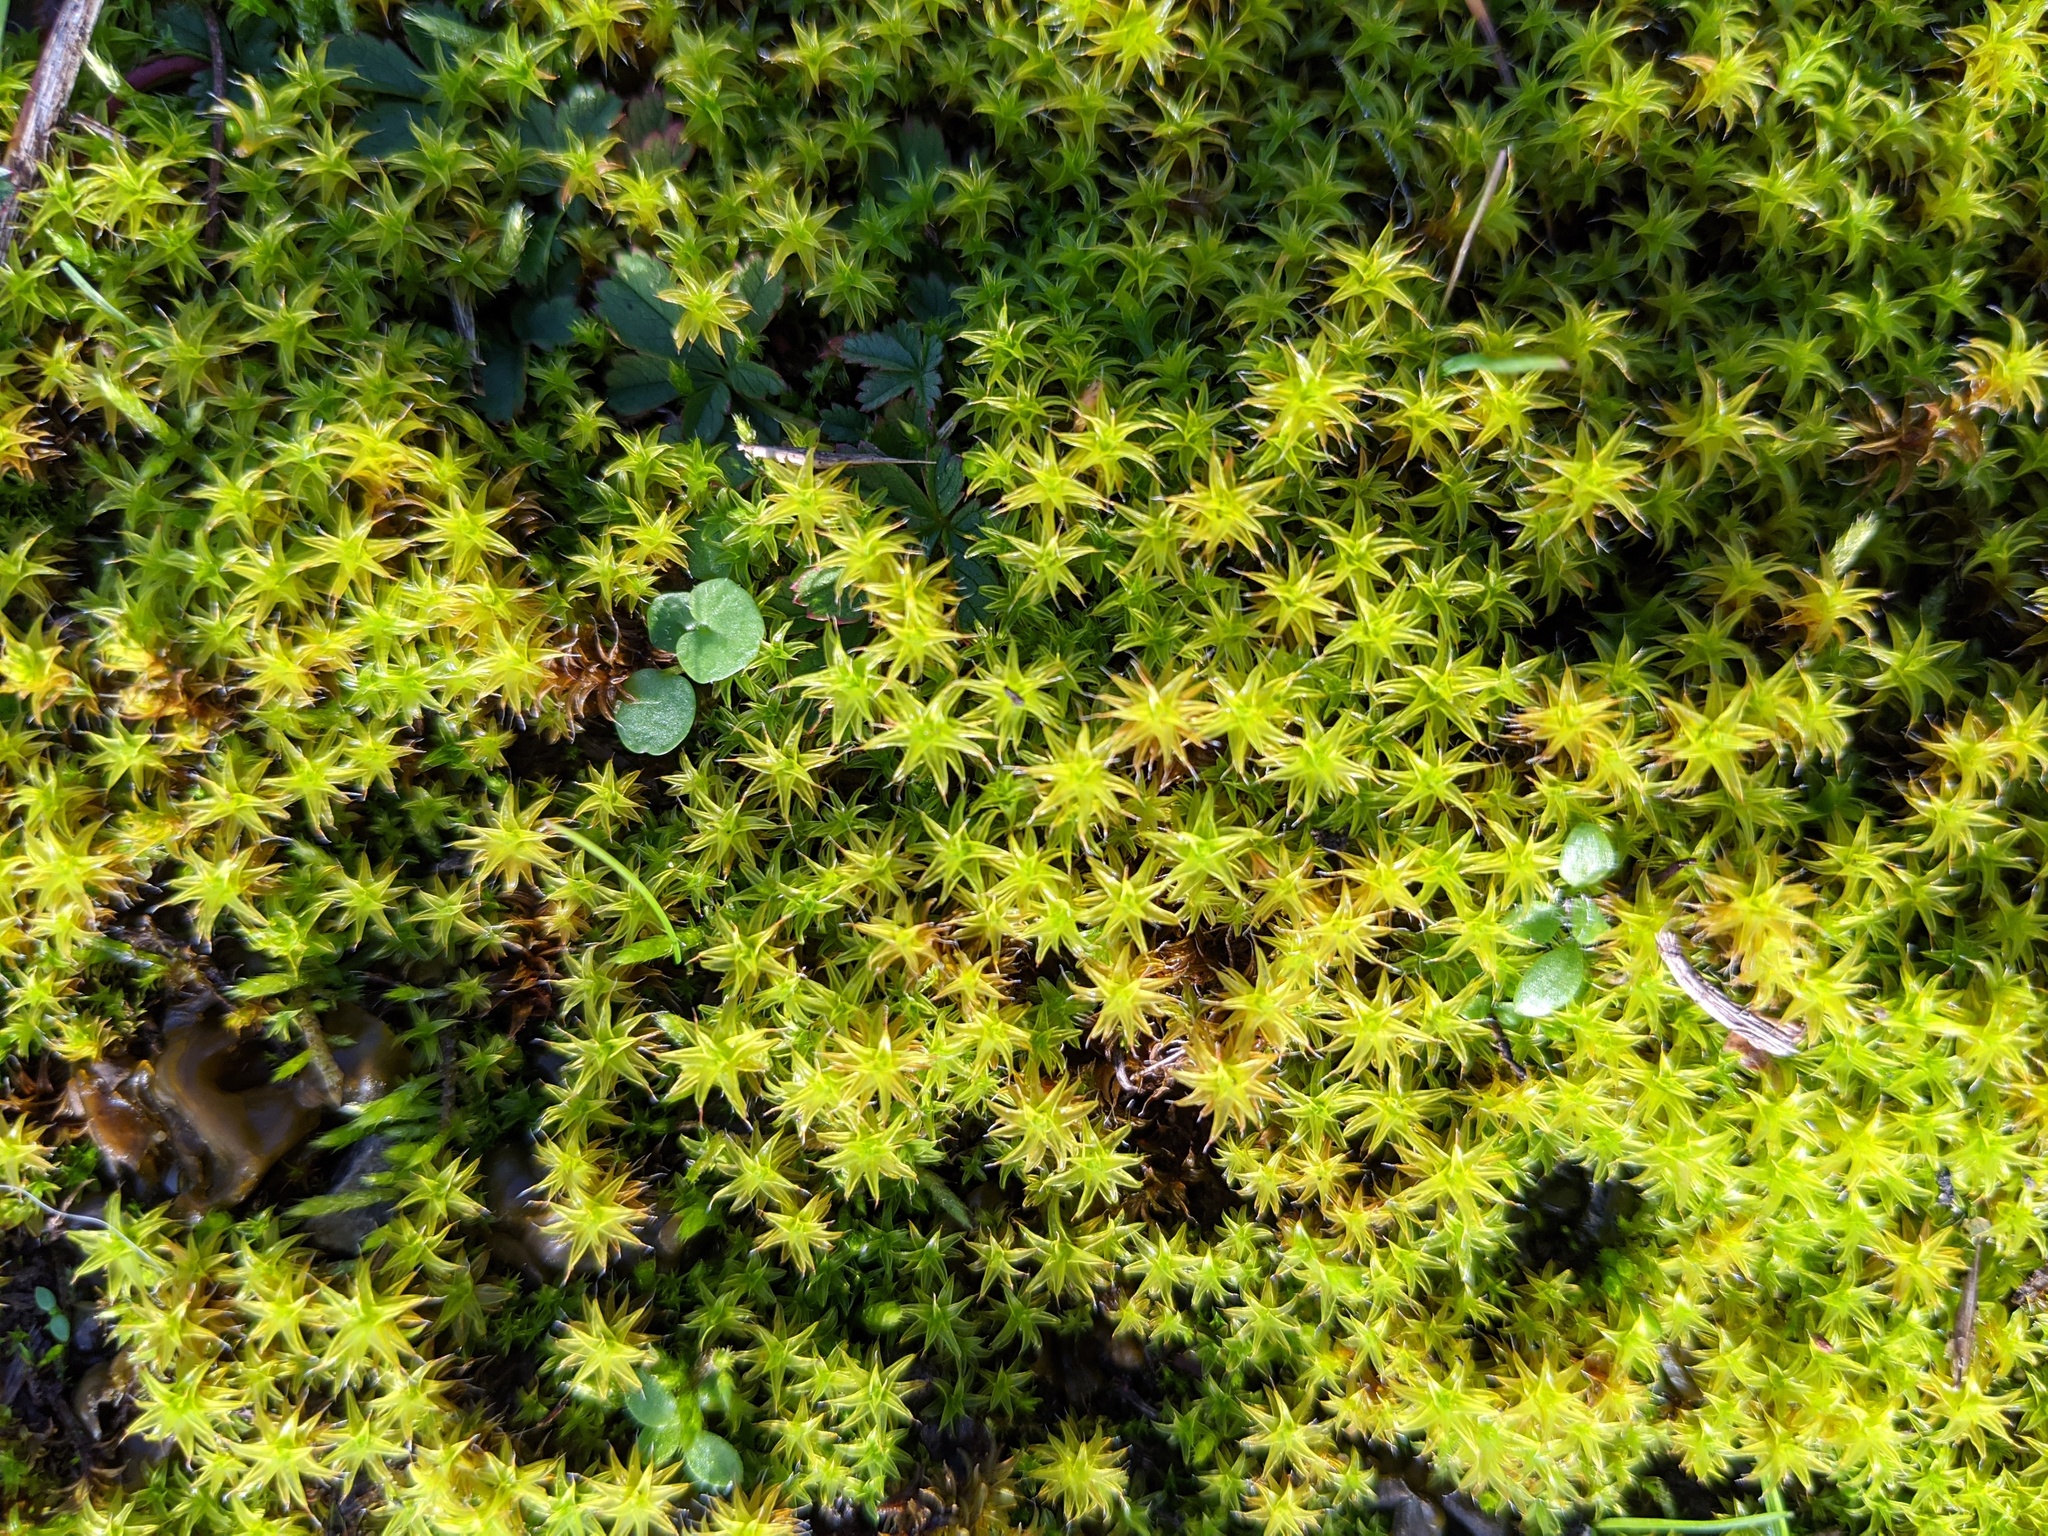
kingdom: Plantae
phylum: Bryophyta
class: Bryopsida
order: Pottiales
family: Pottiaceae
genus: Syntrichia
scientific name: Syntrichia ruralis
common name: Sidewalk screw moss
